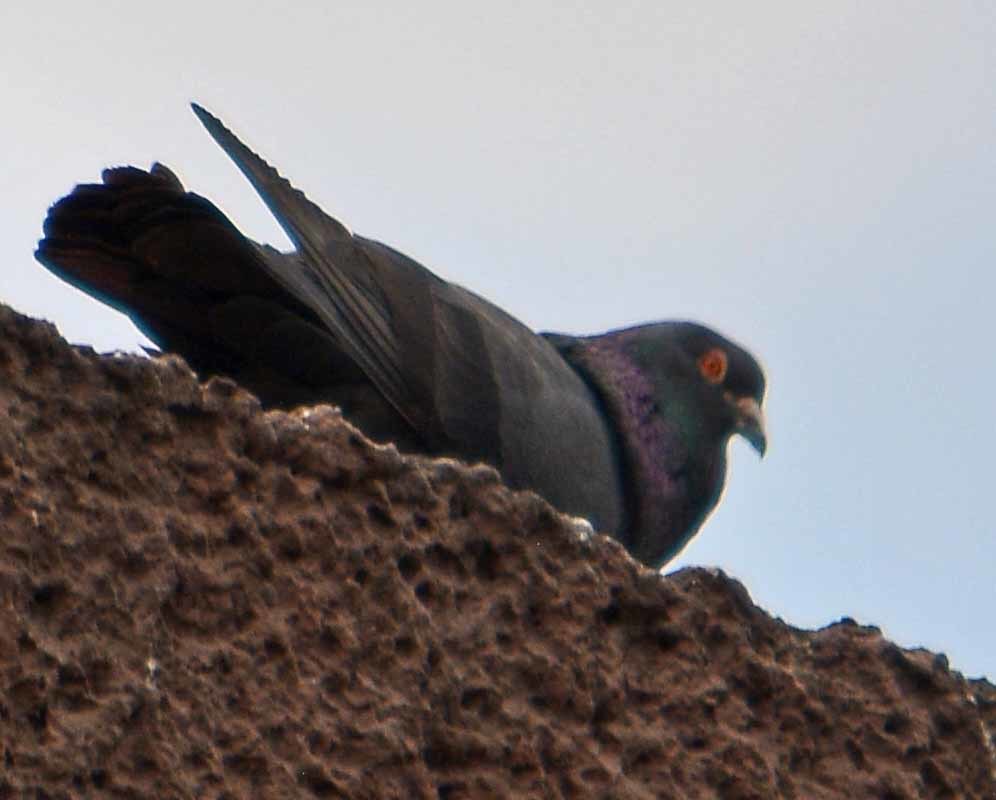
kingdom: Animalia
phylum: Chordata
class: Aves
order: Columbiformes
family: Columbidae
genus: Columba
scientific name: Columba livia
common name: Rock pigeon
